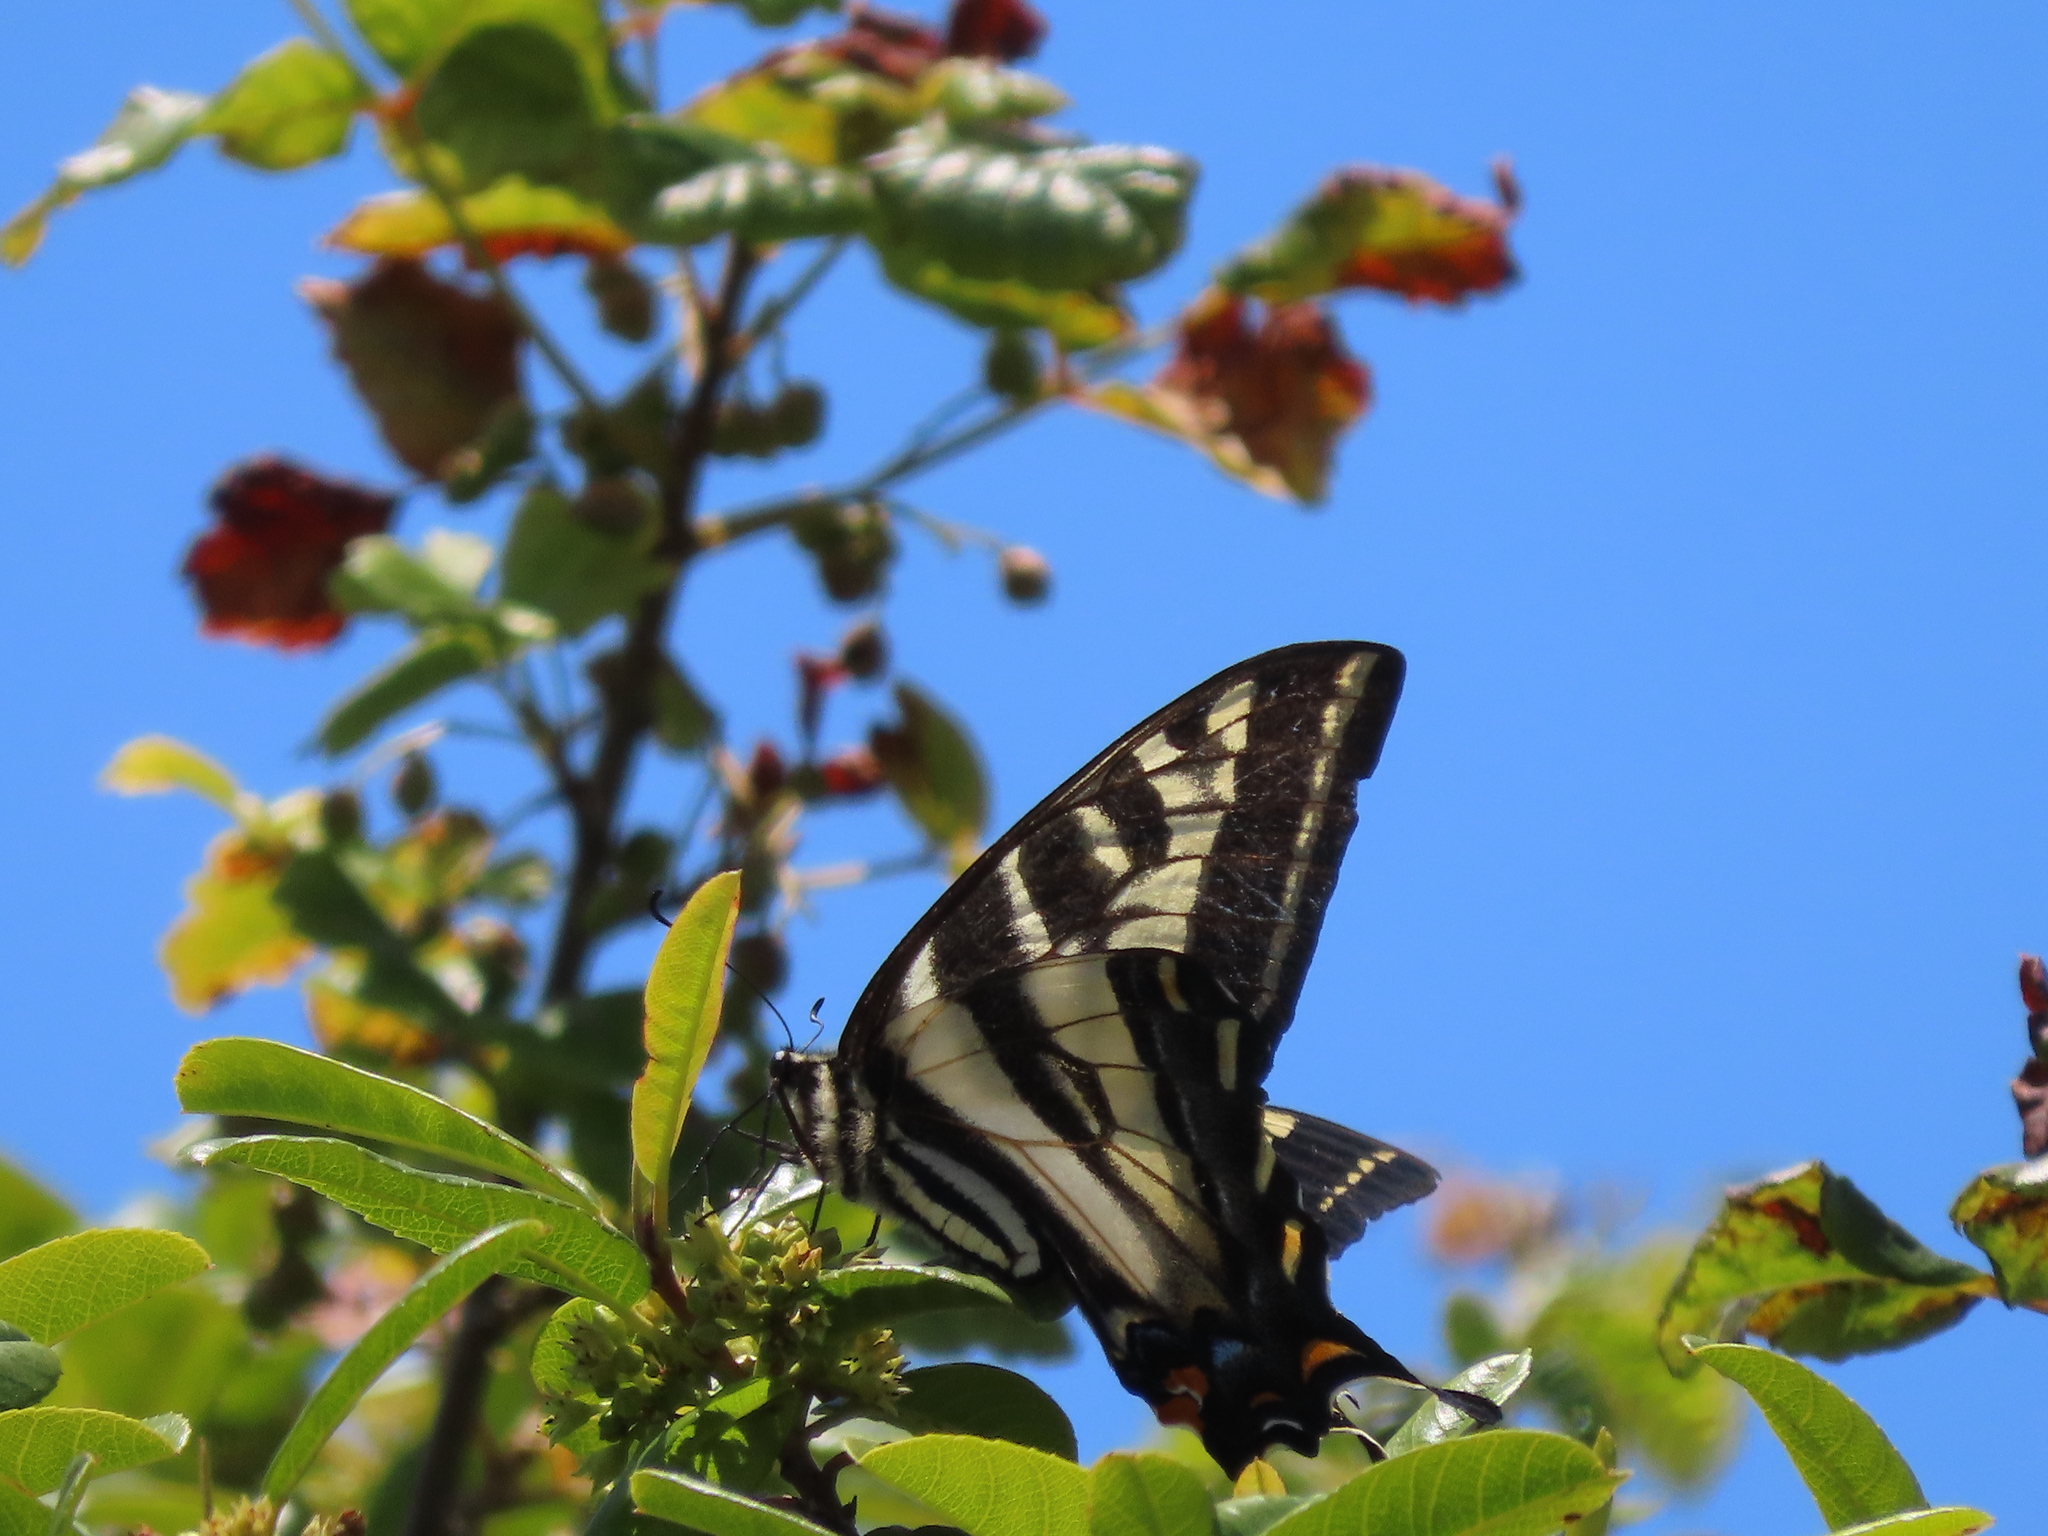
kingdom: Animalia
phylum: Arthropoda
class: Insecta
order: Lepidoptera
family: Papilionidae
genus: Papilio
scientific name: Papilio eurymedon
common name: Pale tiger swallowtail
